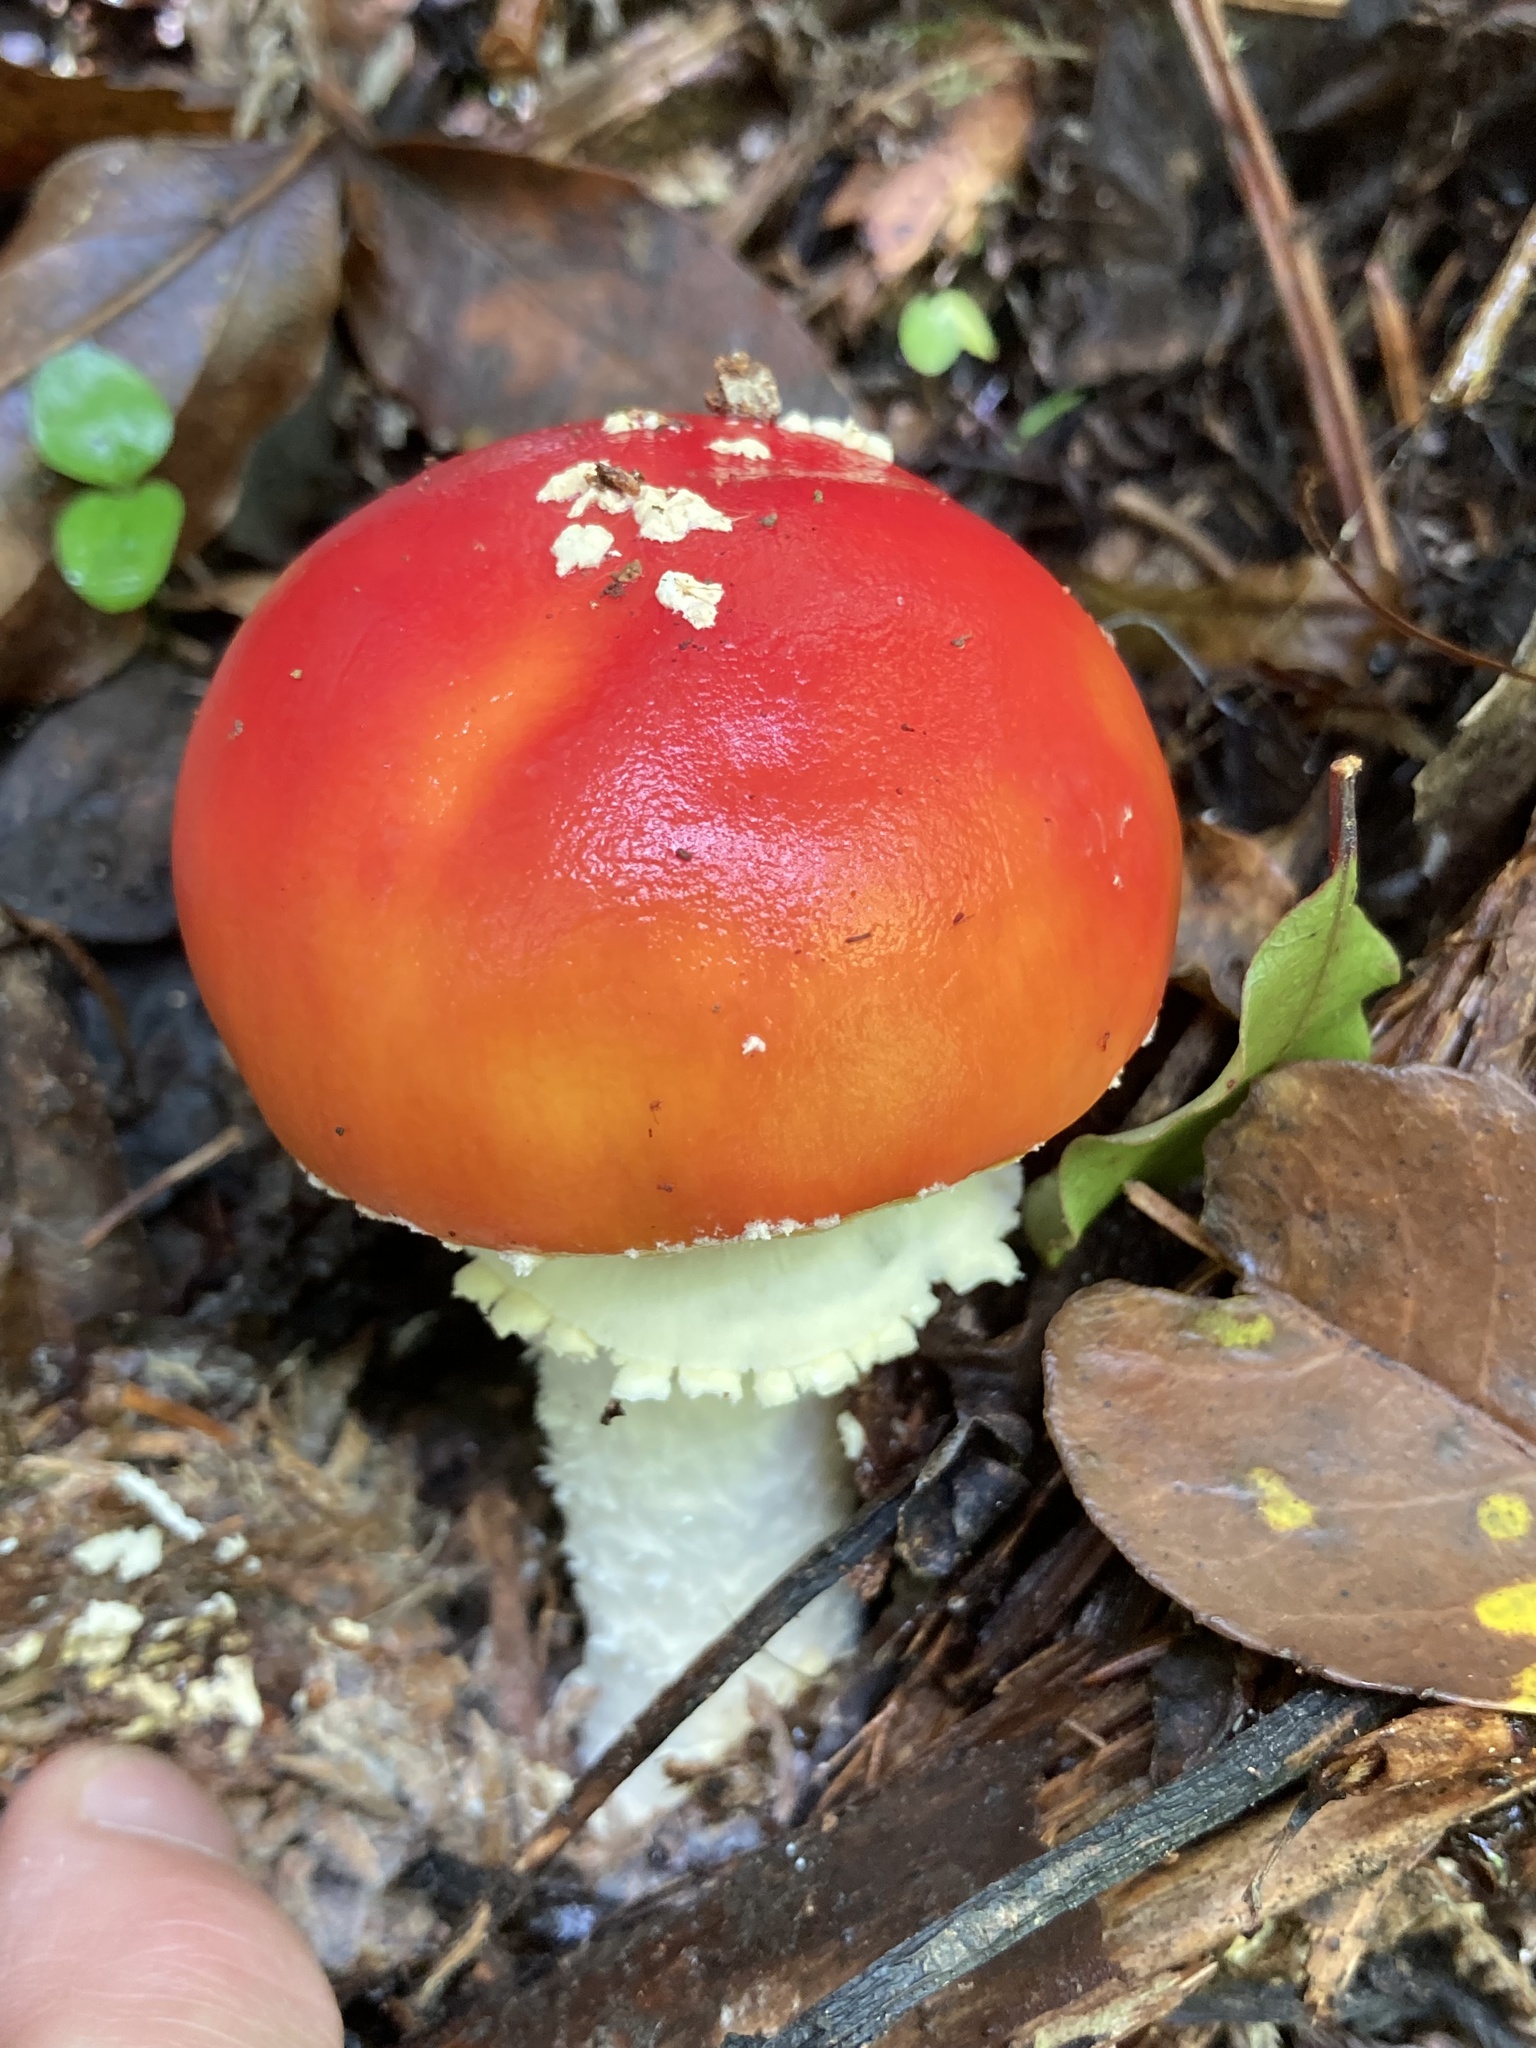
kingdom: Fungi
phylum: Basidiomycota
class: Agaricomycetes
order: Agaricales
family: Amanitaceae
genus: Amanita
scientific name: Amanita muscaria
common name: Fly agaric
